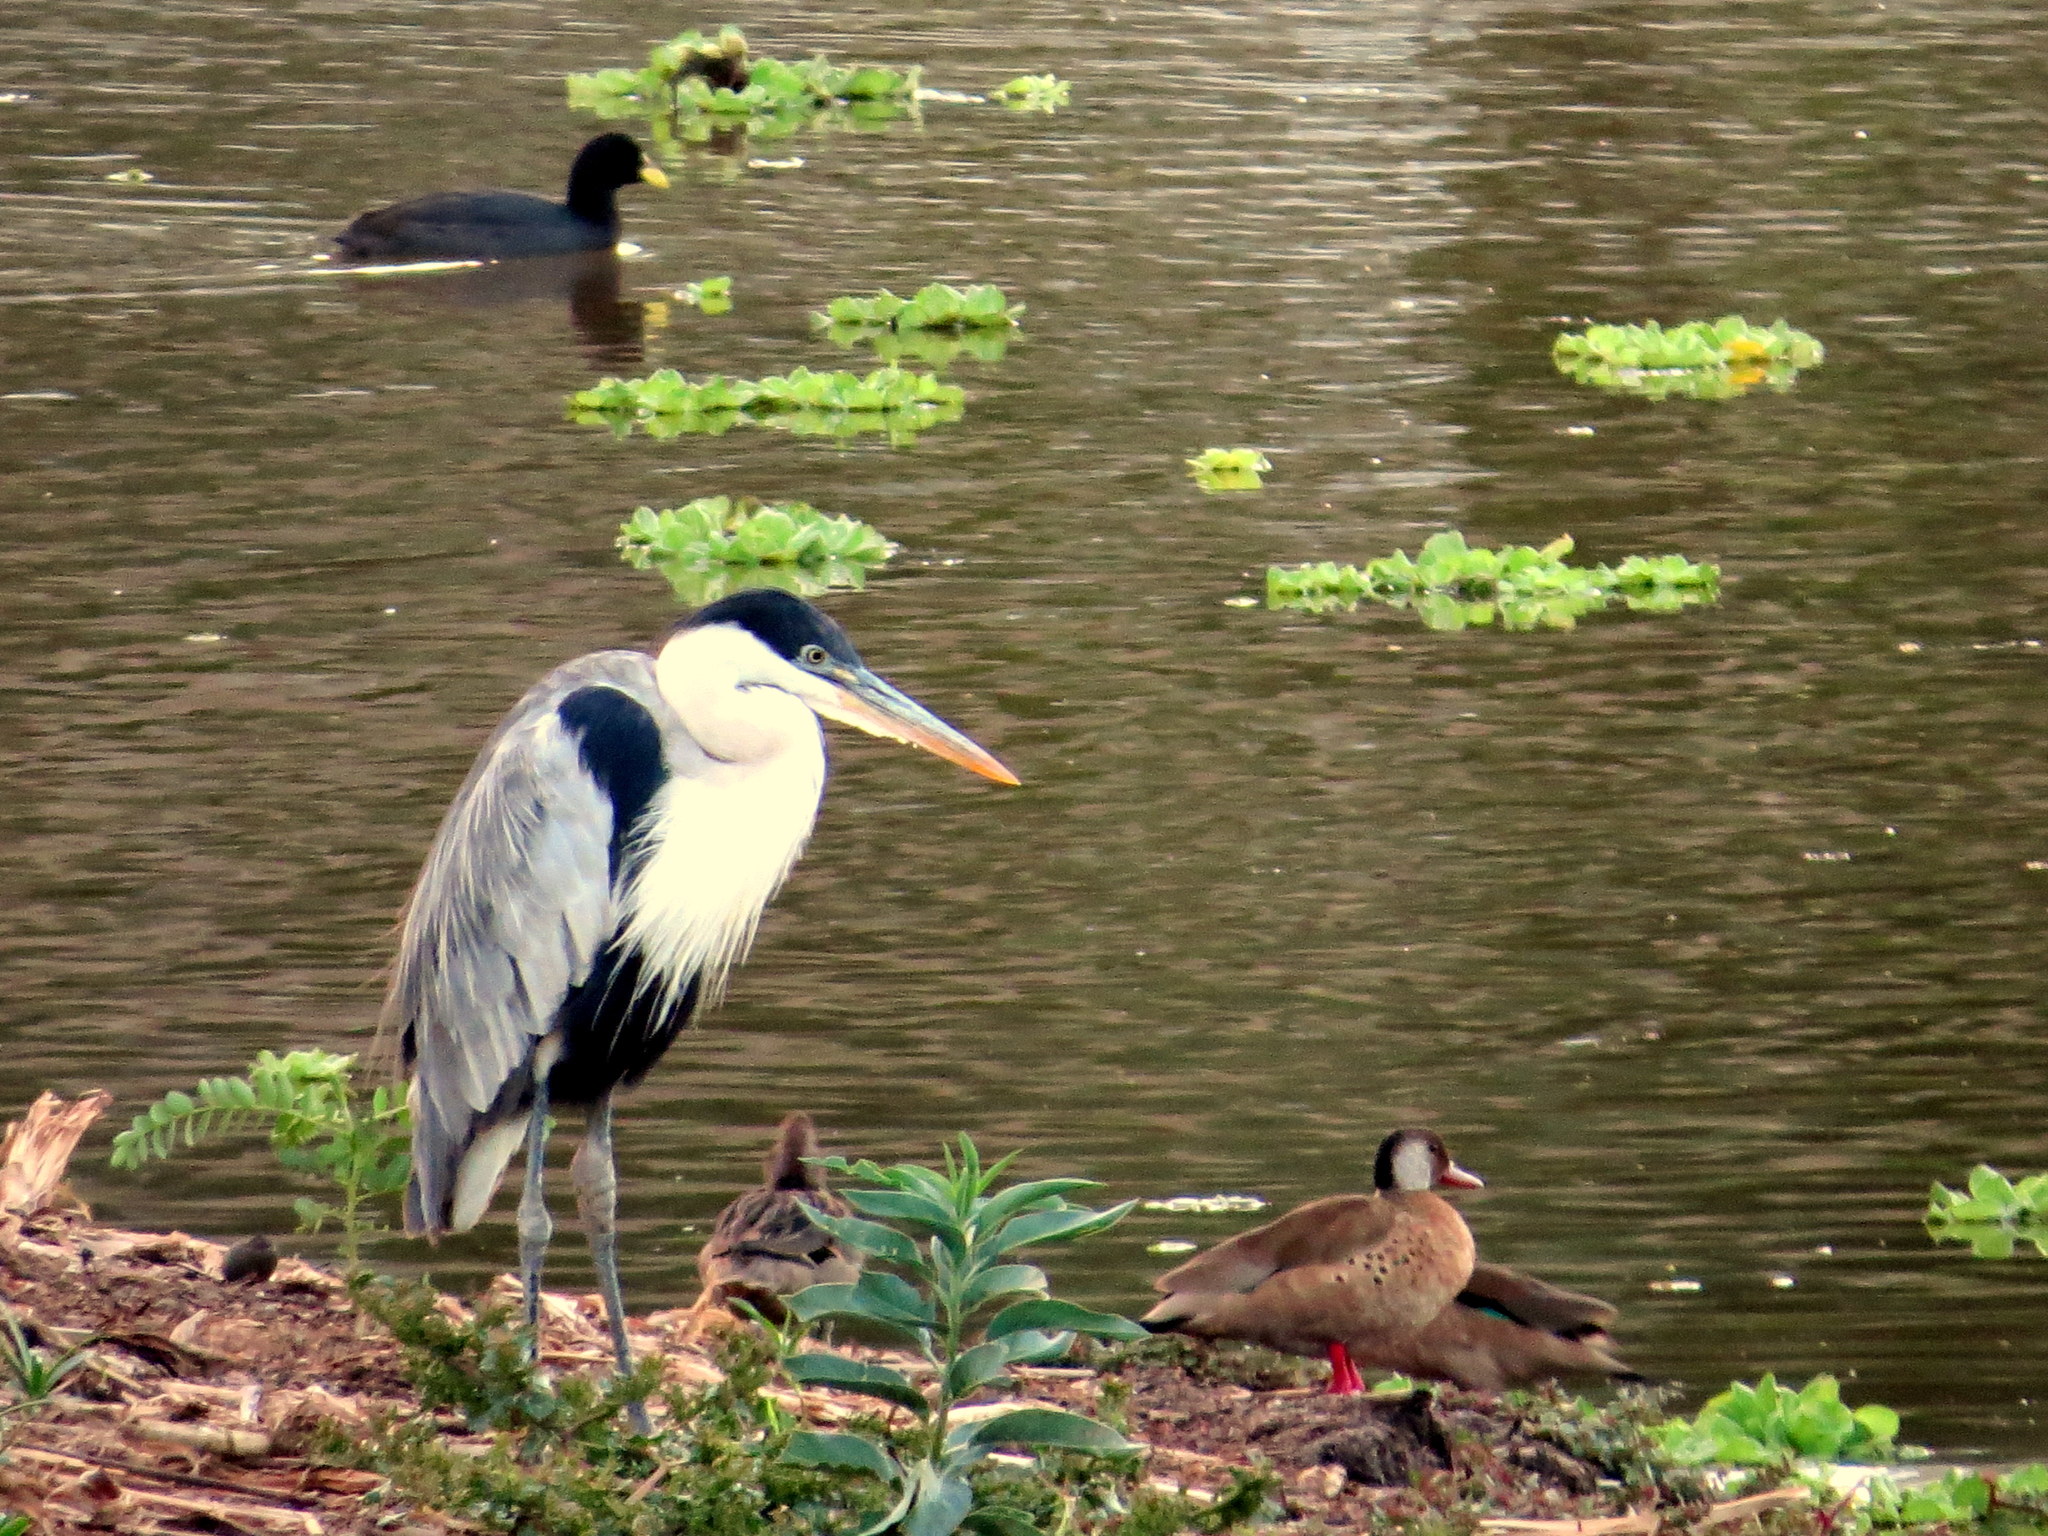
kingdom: Animalia
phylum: Chordata
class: Aves
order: Pelecaniformes
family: Ardeidae
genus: Ardea
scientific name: Ardea cocoi
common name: Cocoi heron
